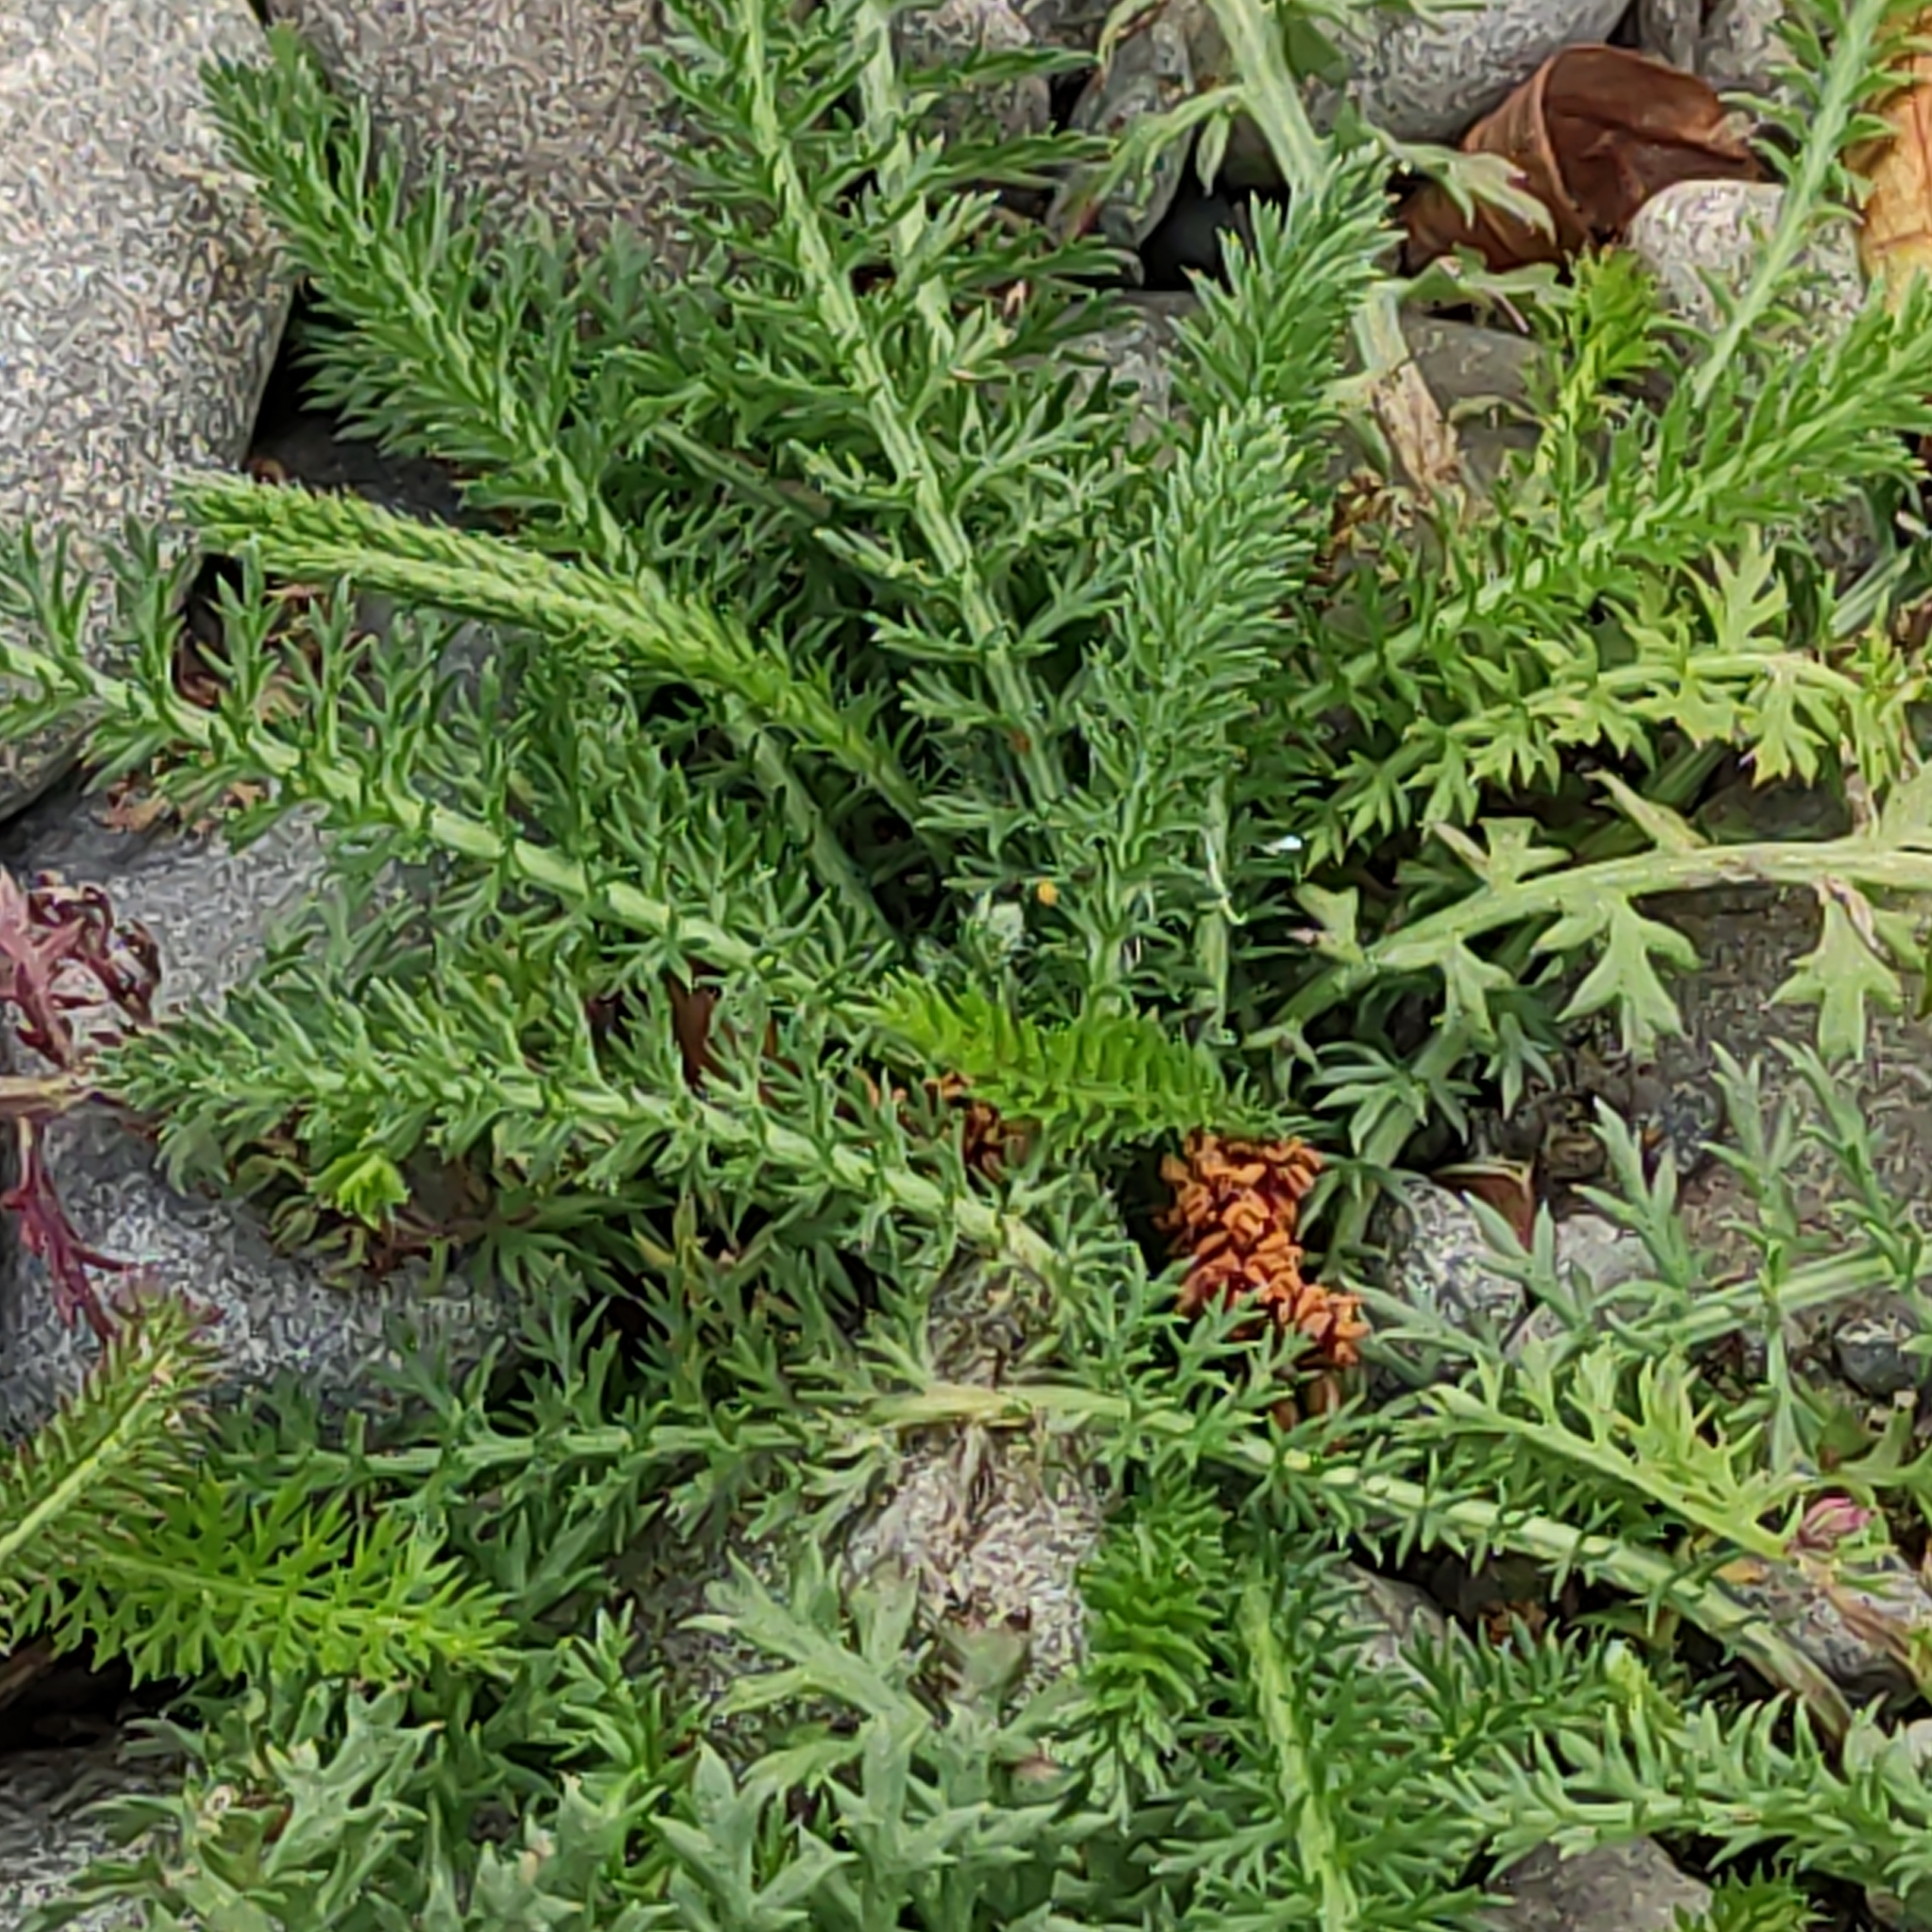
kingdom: Plantae
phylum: Tracheophyta
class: Magnoliopsida
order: Asterales
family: Asteraceae
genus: Achillea
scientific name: Achillea millefolium
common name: Yarrow
